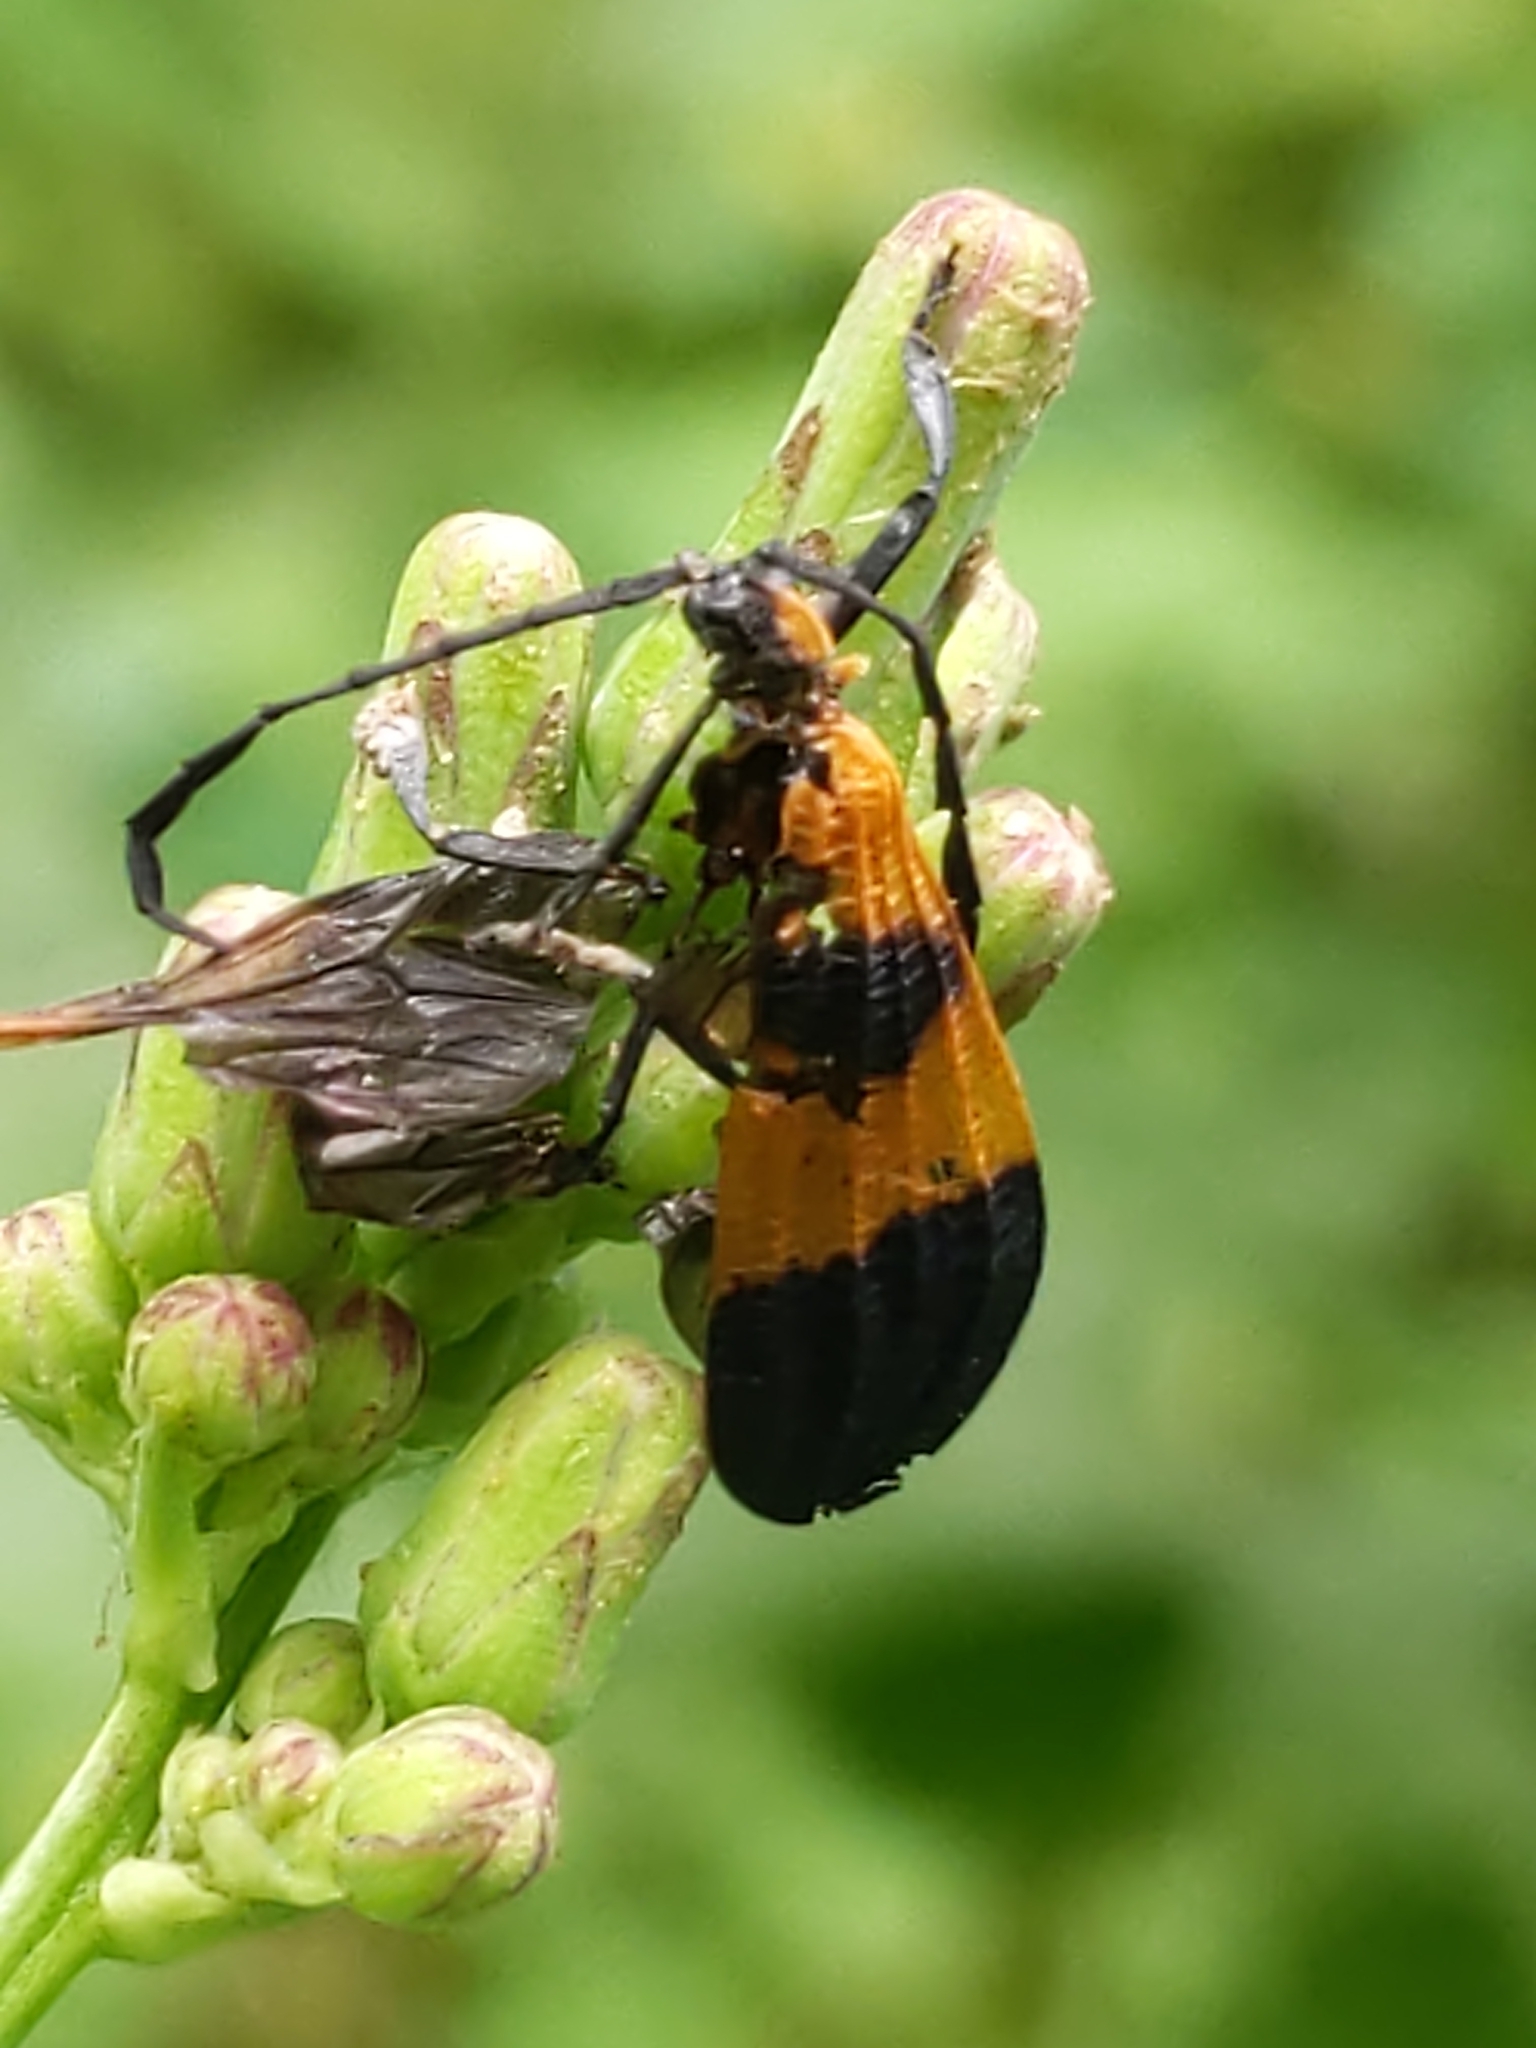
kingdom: Animalia
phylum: Arthropoda
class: Insecta
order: Coleoptera
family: Lycidae
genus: Calopteron
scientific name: Calopteron terminale
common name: End band net-winged beetle
